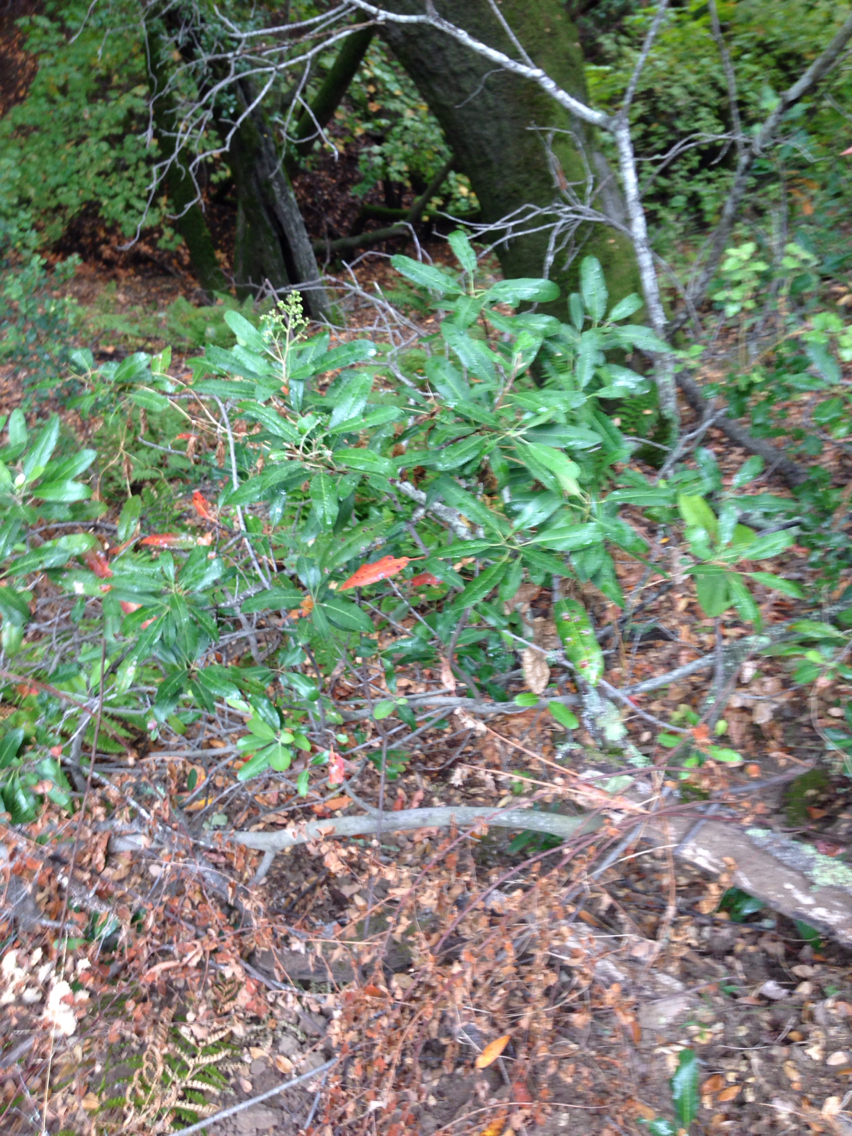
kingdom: Plantae
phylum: Tracheophyta
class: Magnoliopsida
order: Rosales
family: Rosaceae
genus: Heteromeles
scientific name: Heteromeles arbutifolia
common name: California-holly
